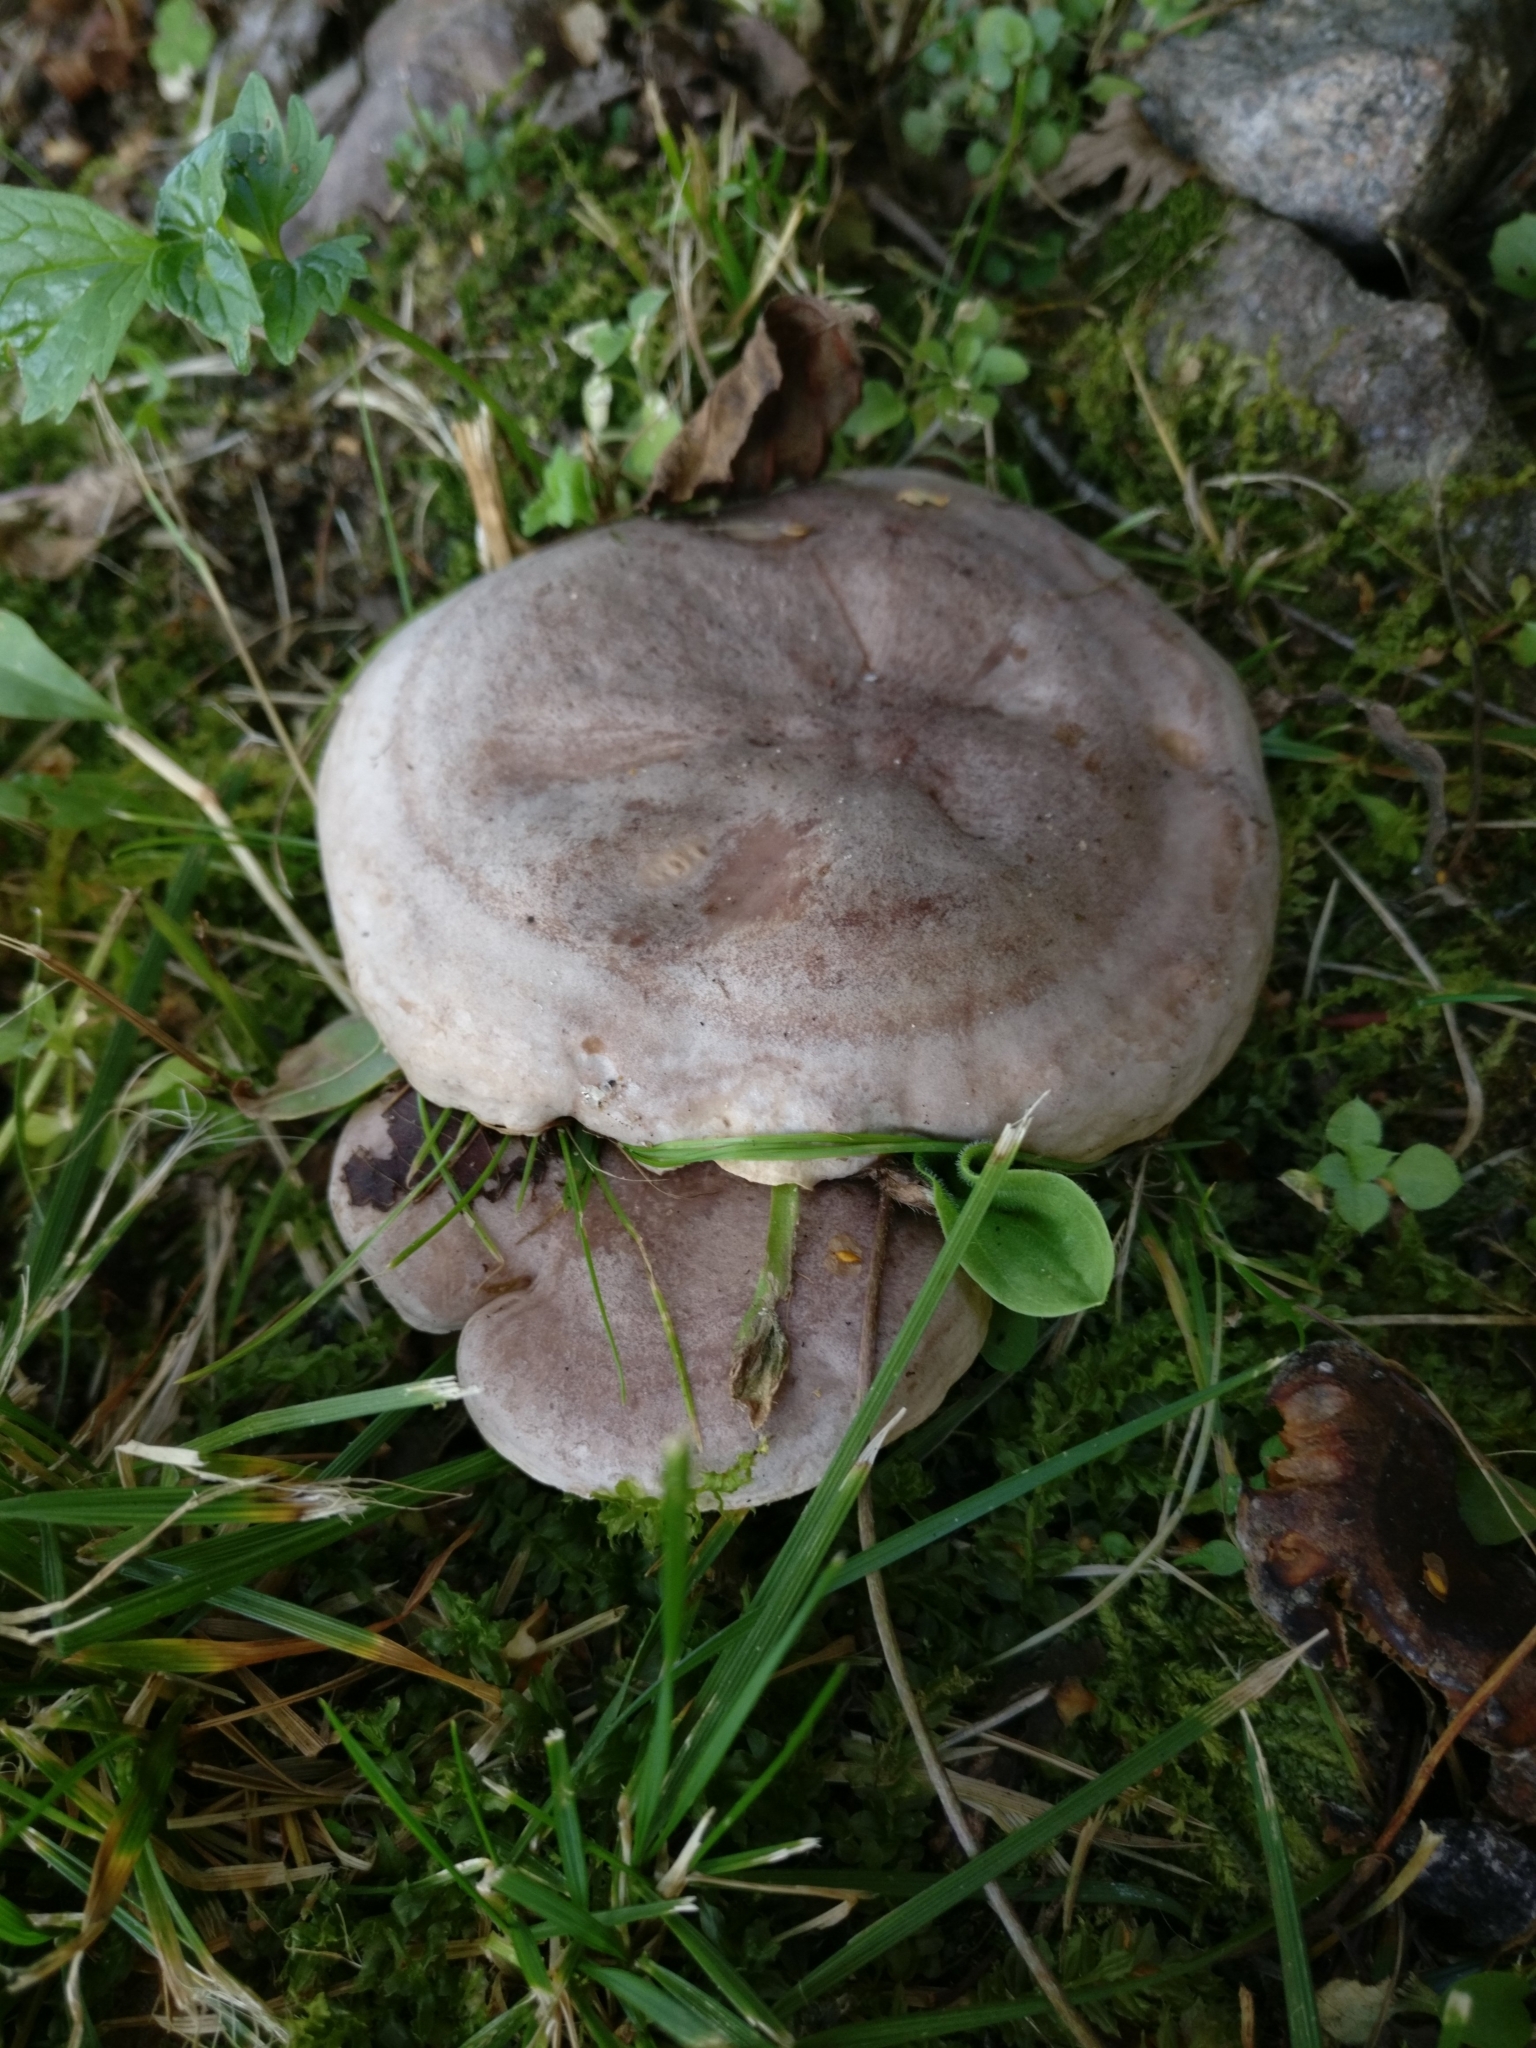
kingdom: Fungi
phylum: Basidiomycota
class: Agaricomycetes
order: Russulales
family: Russulaceae
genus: Lactarius
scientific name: Lactarius flexuosus
